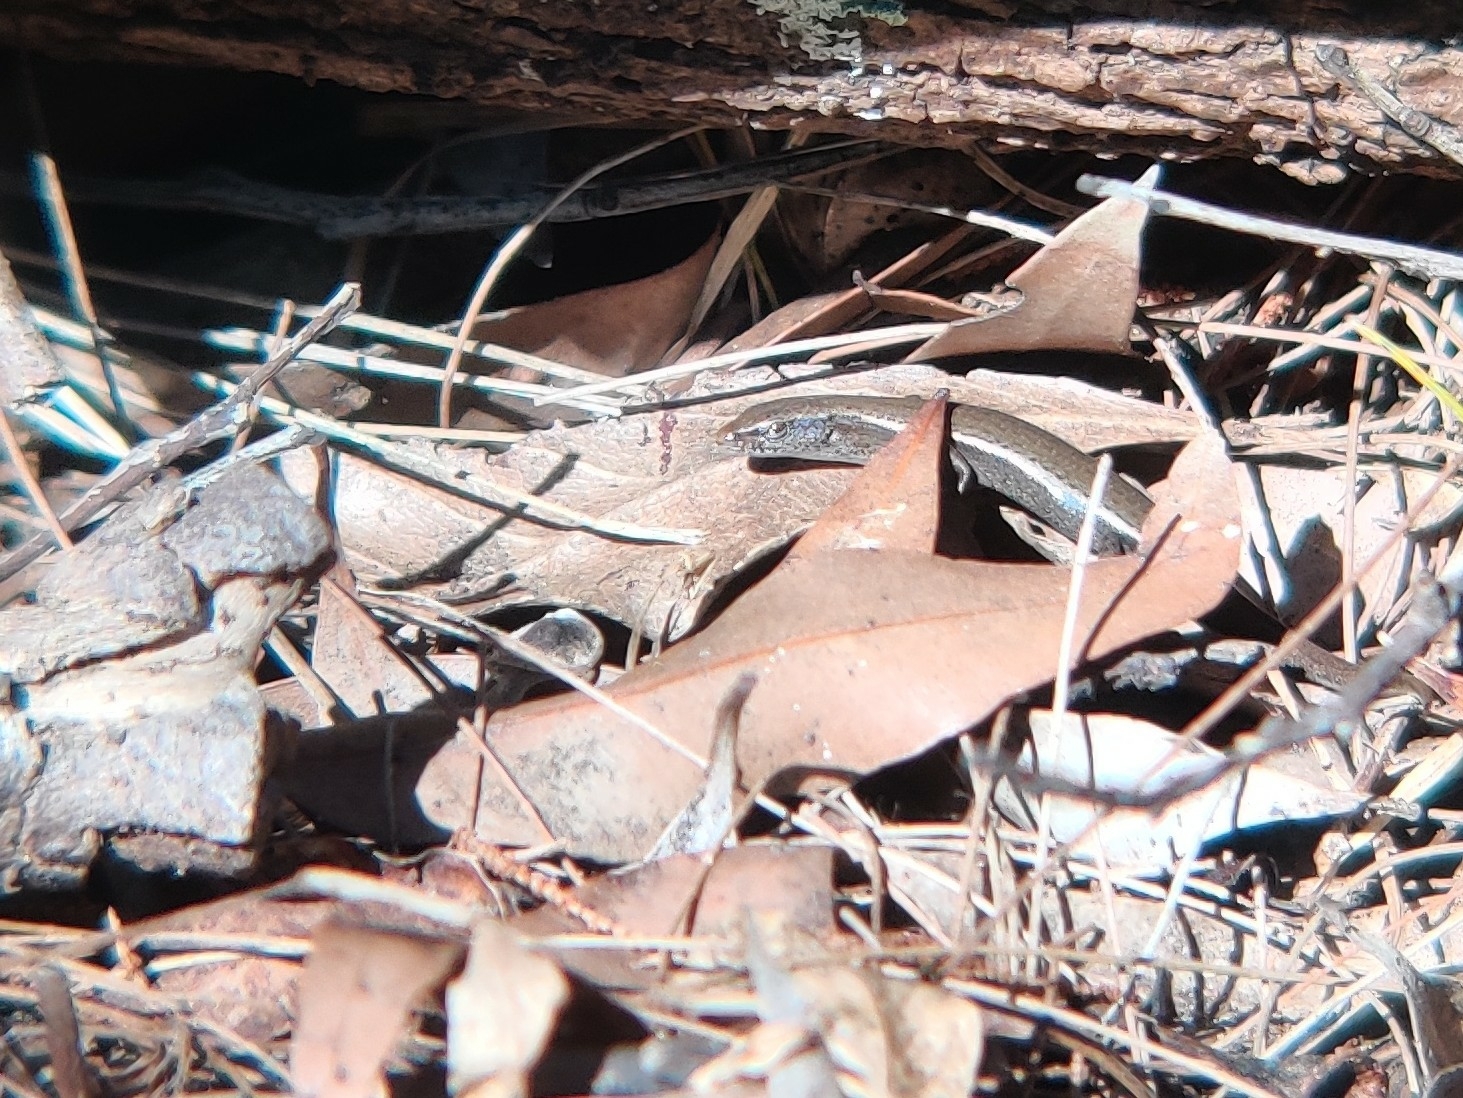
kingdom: Animalia
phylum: Chordata
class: Squamata
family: Scincidae
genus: Lampropholis
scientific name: Lampropholis delicata
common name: Plague skink
